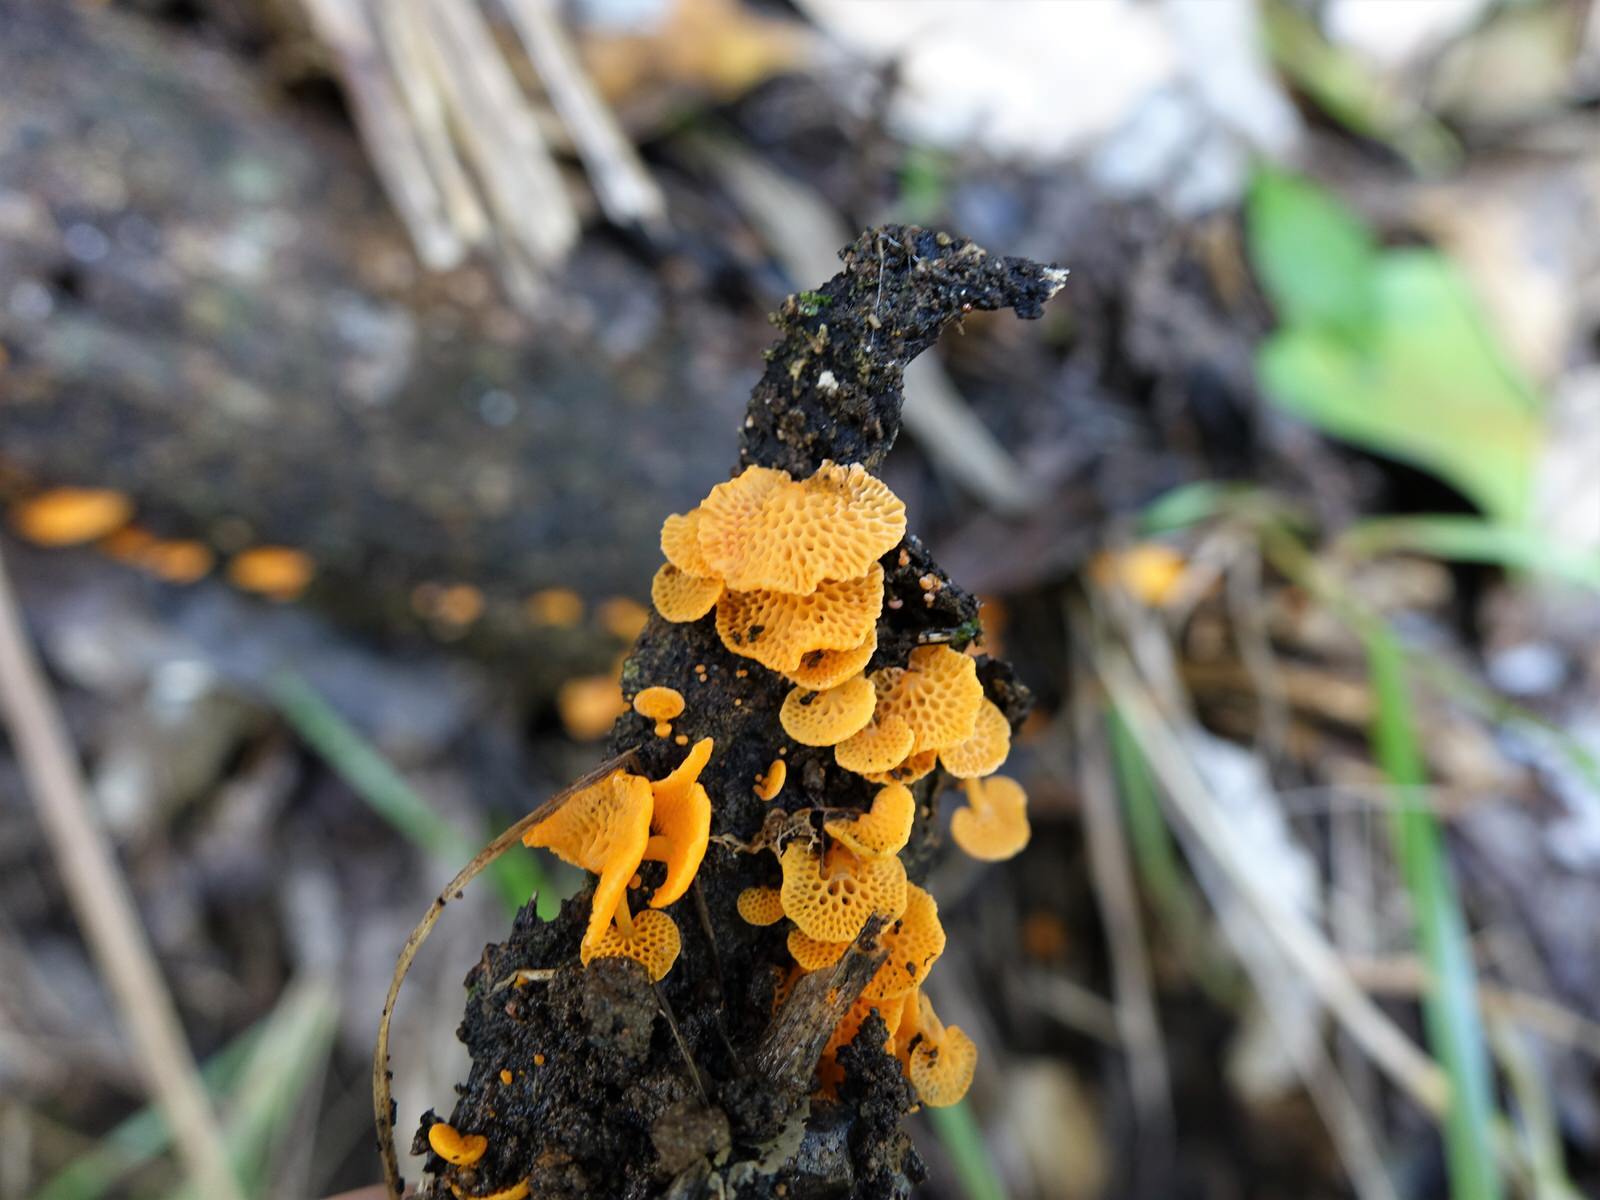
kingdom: Fungi
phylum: Basidiomycota
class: Agaricomycetes
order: Agaricales
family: Mycenaceae
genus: Favolaschia
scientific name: Favolaschia claudopus
